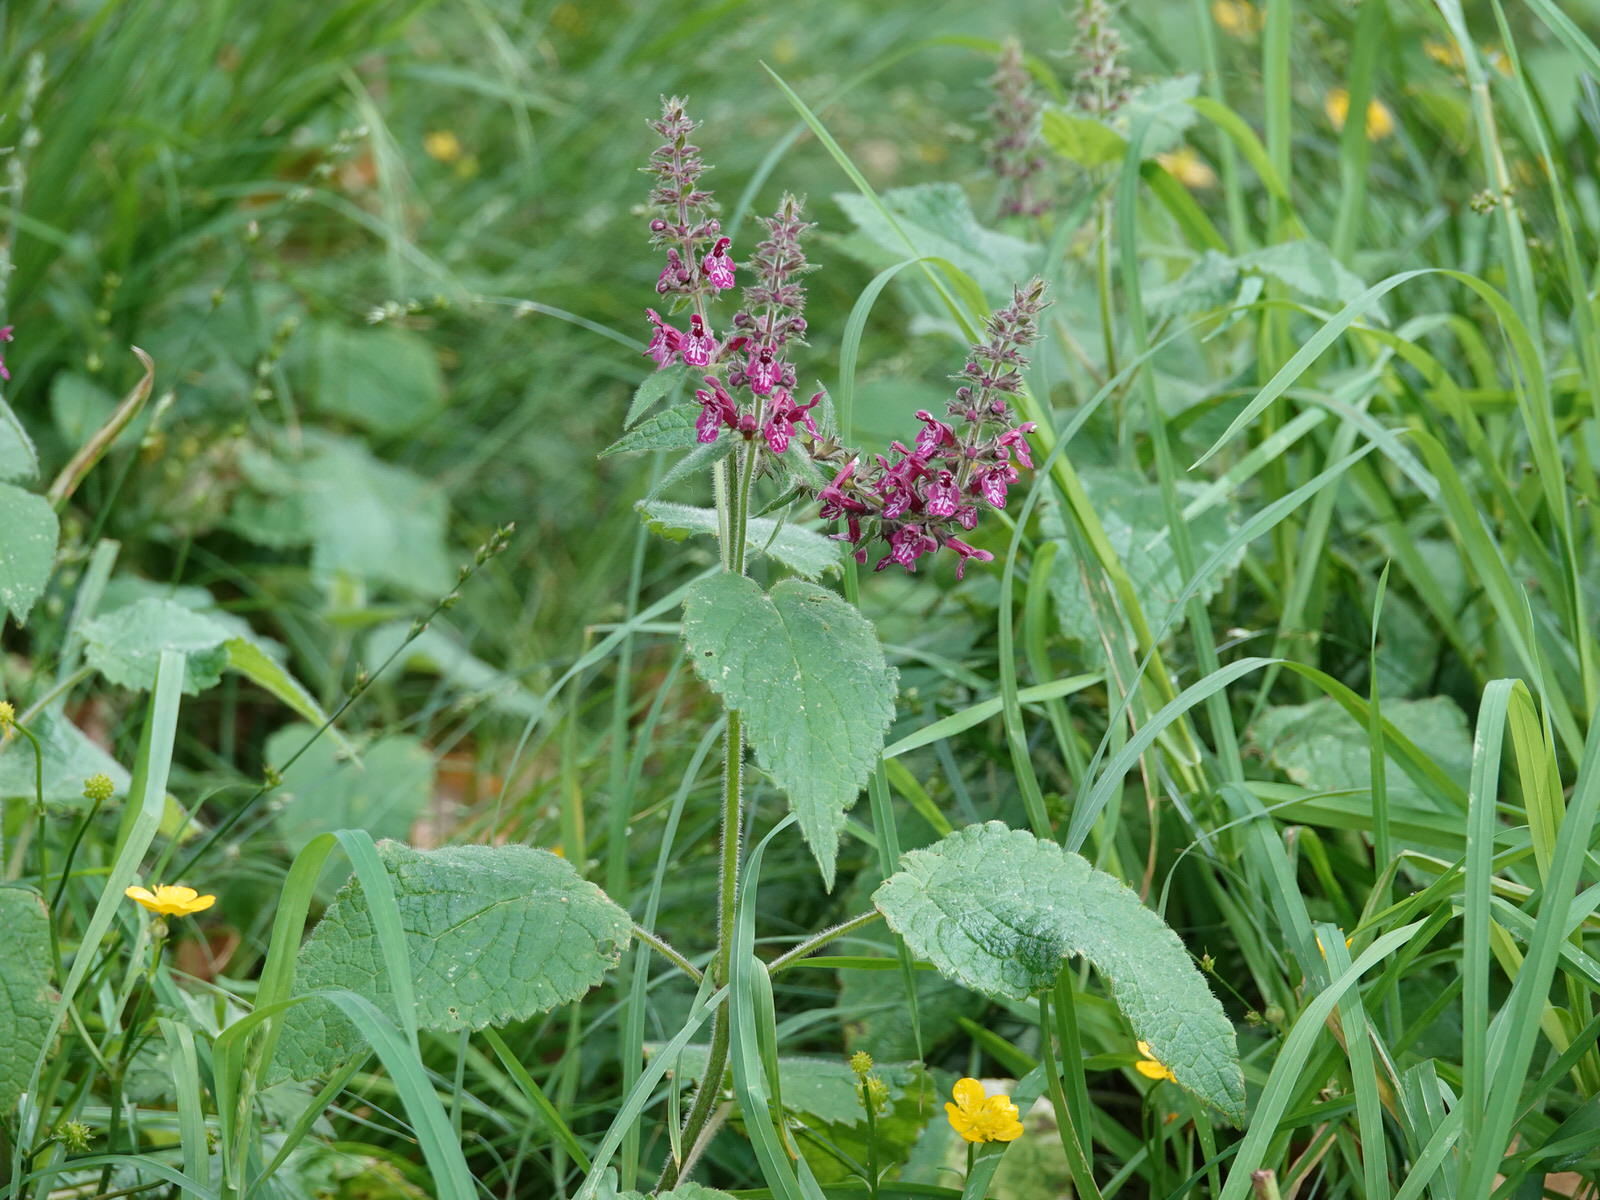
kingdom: Plantae
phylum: Tracheophyta
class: Magnoliopsida
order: Lamiales
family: Lamiaceae
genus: Stachys
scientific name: Stachys sylvatica
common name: Hedge woundwort
